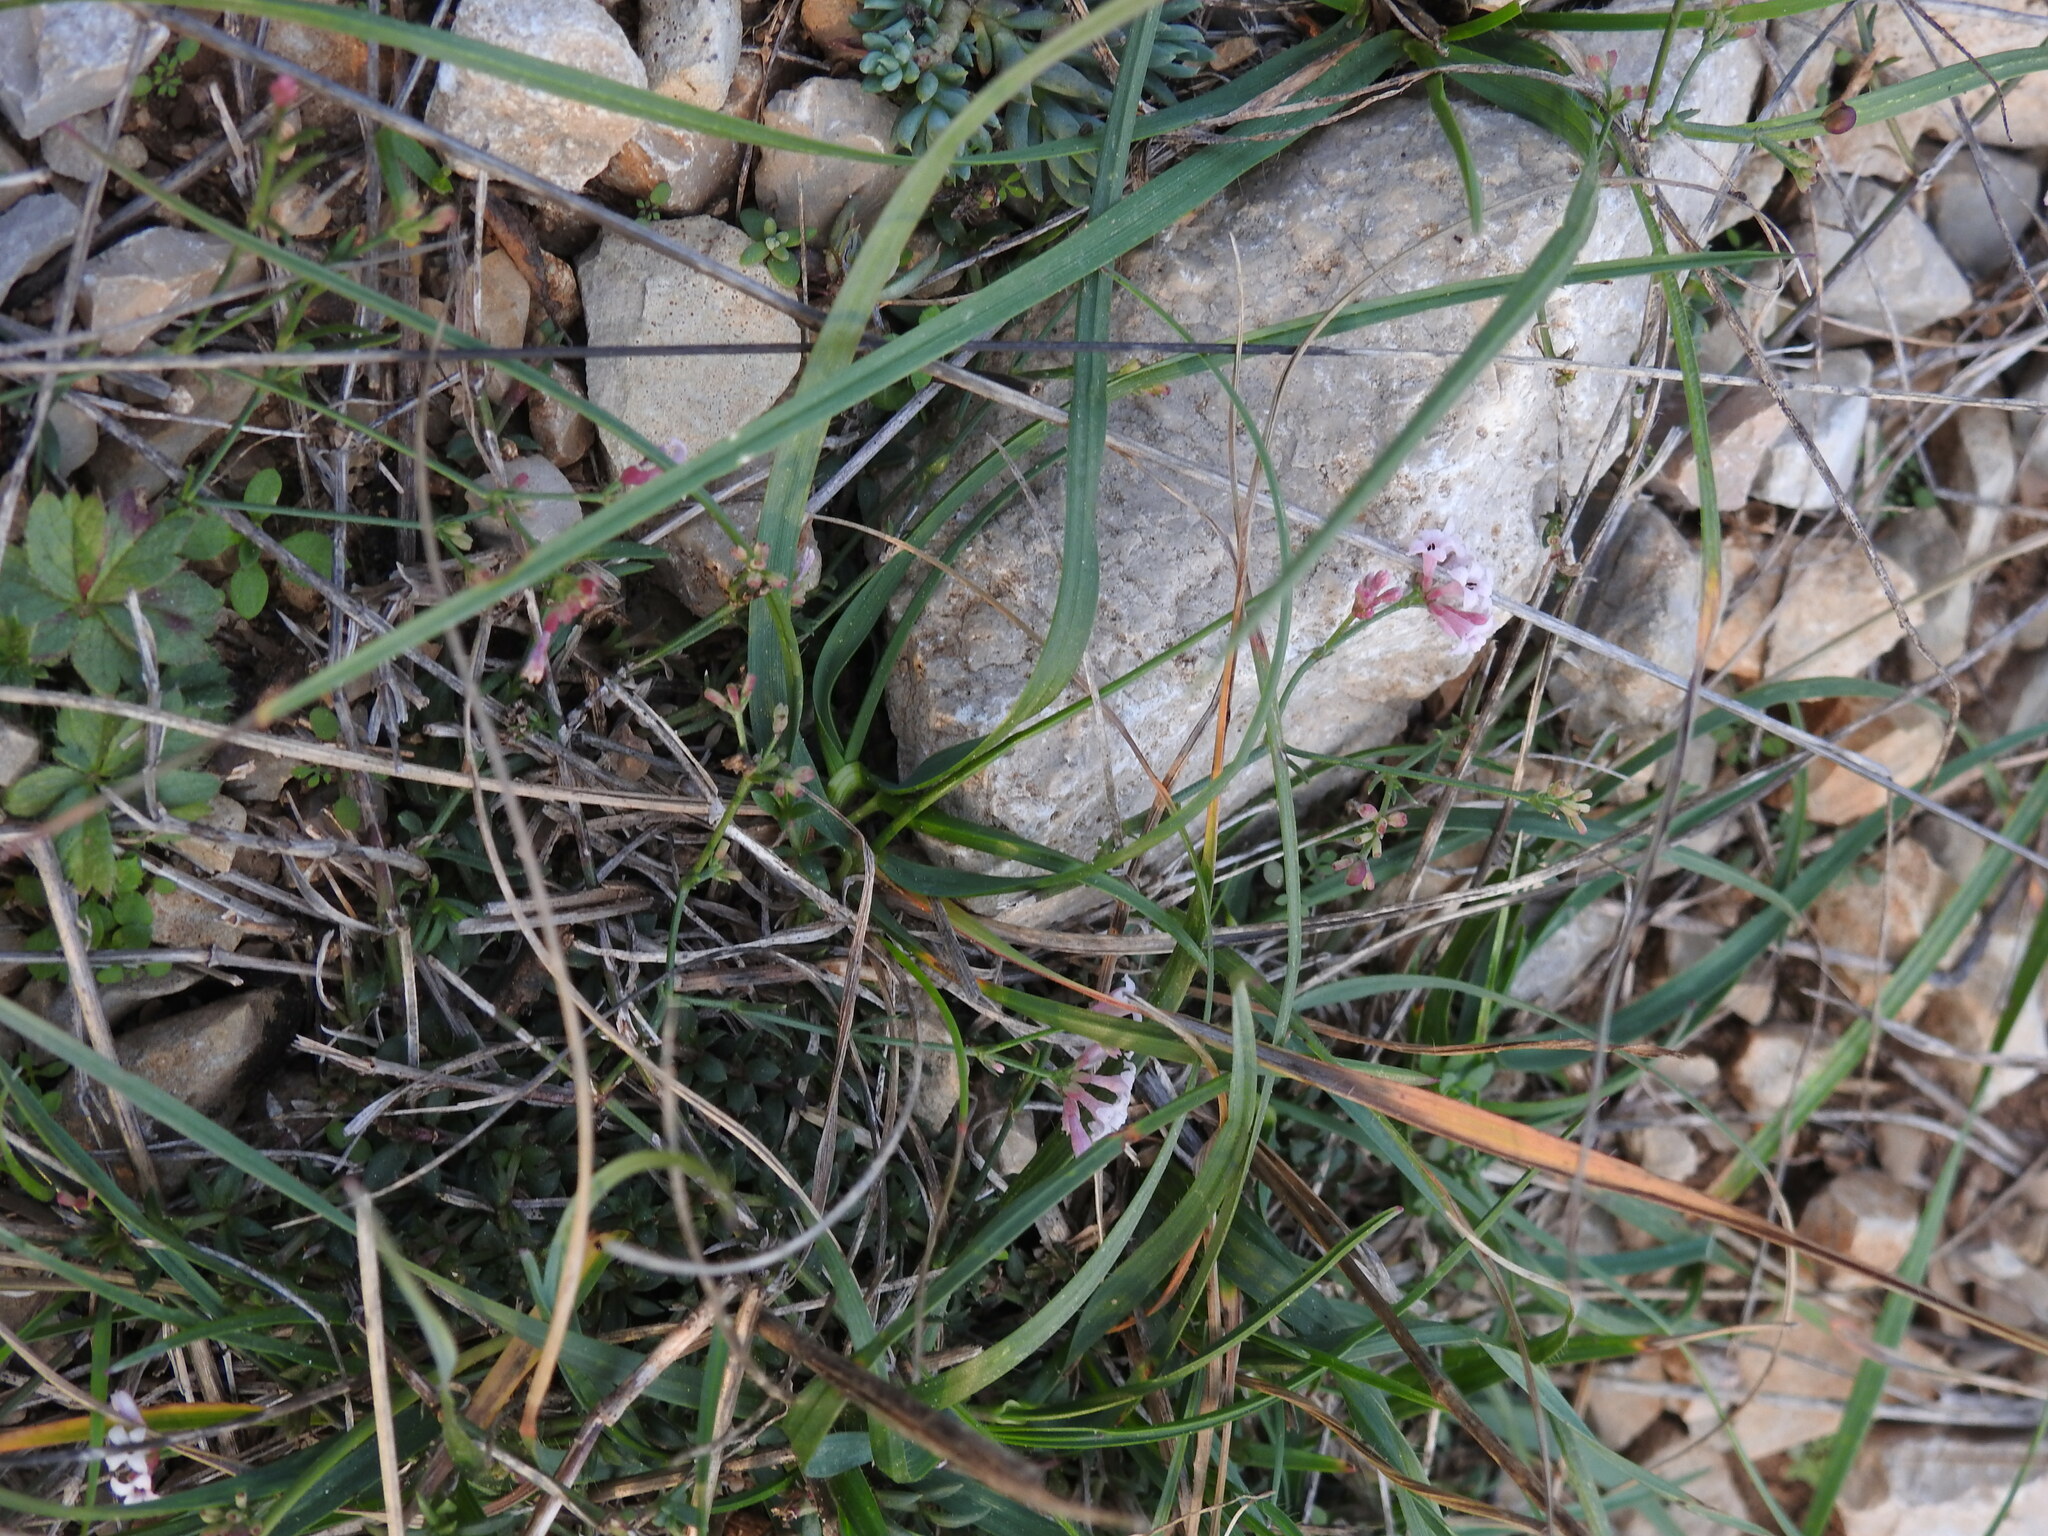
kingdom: Plantae
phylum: Tracheophyta
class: Magnoliopsida
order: Gentianales
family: Rubiaceae
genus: Cynanchica
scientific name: Cynanchica pyrenaica
